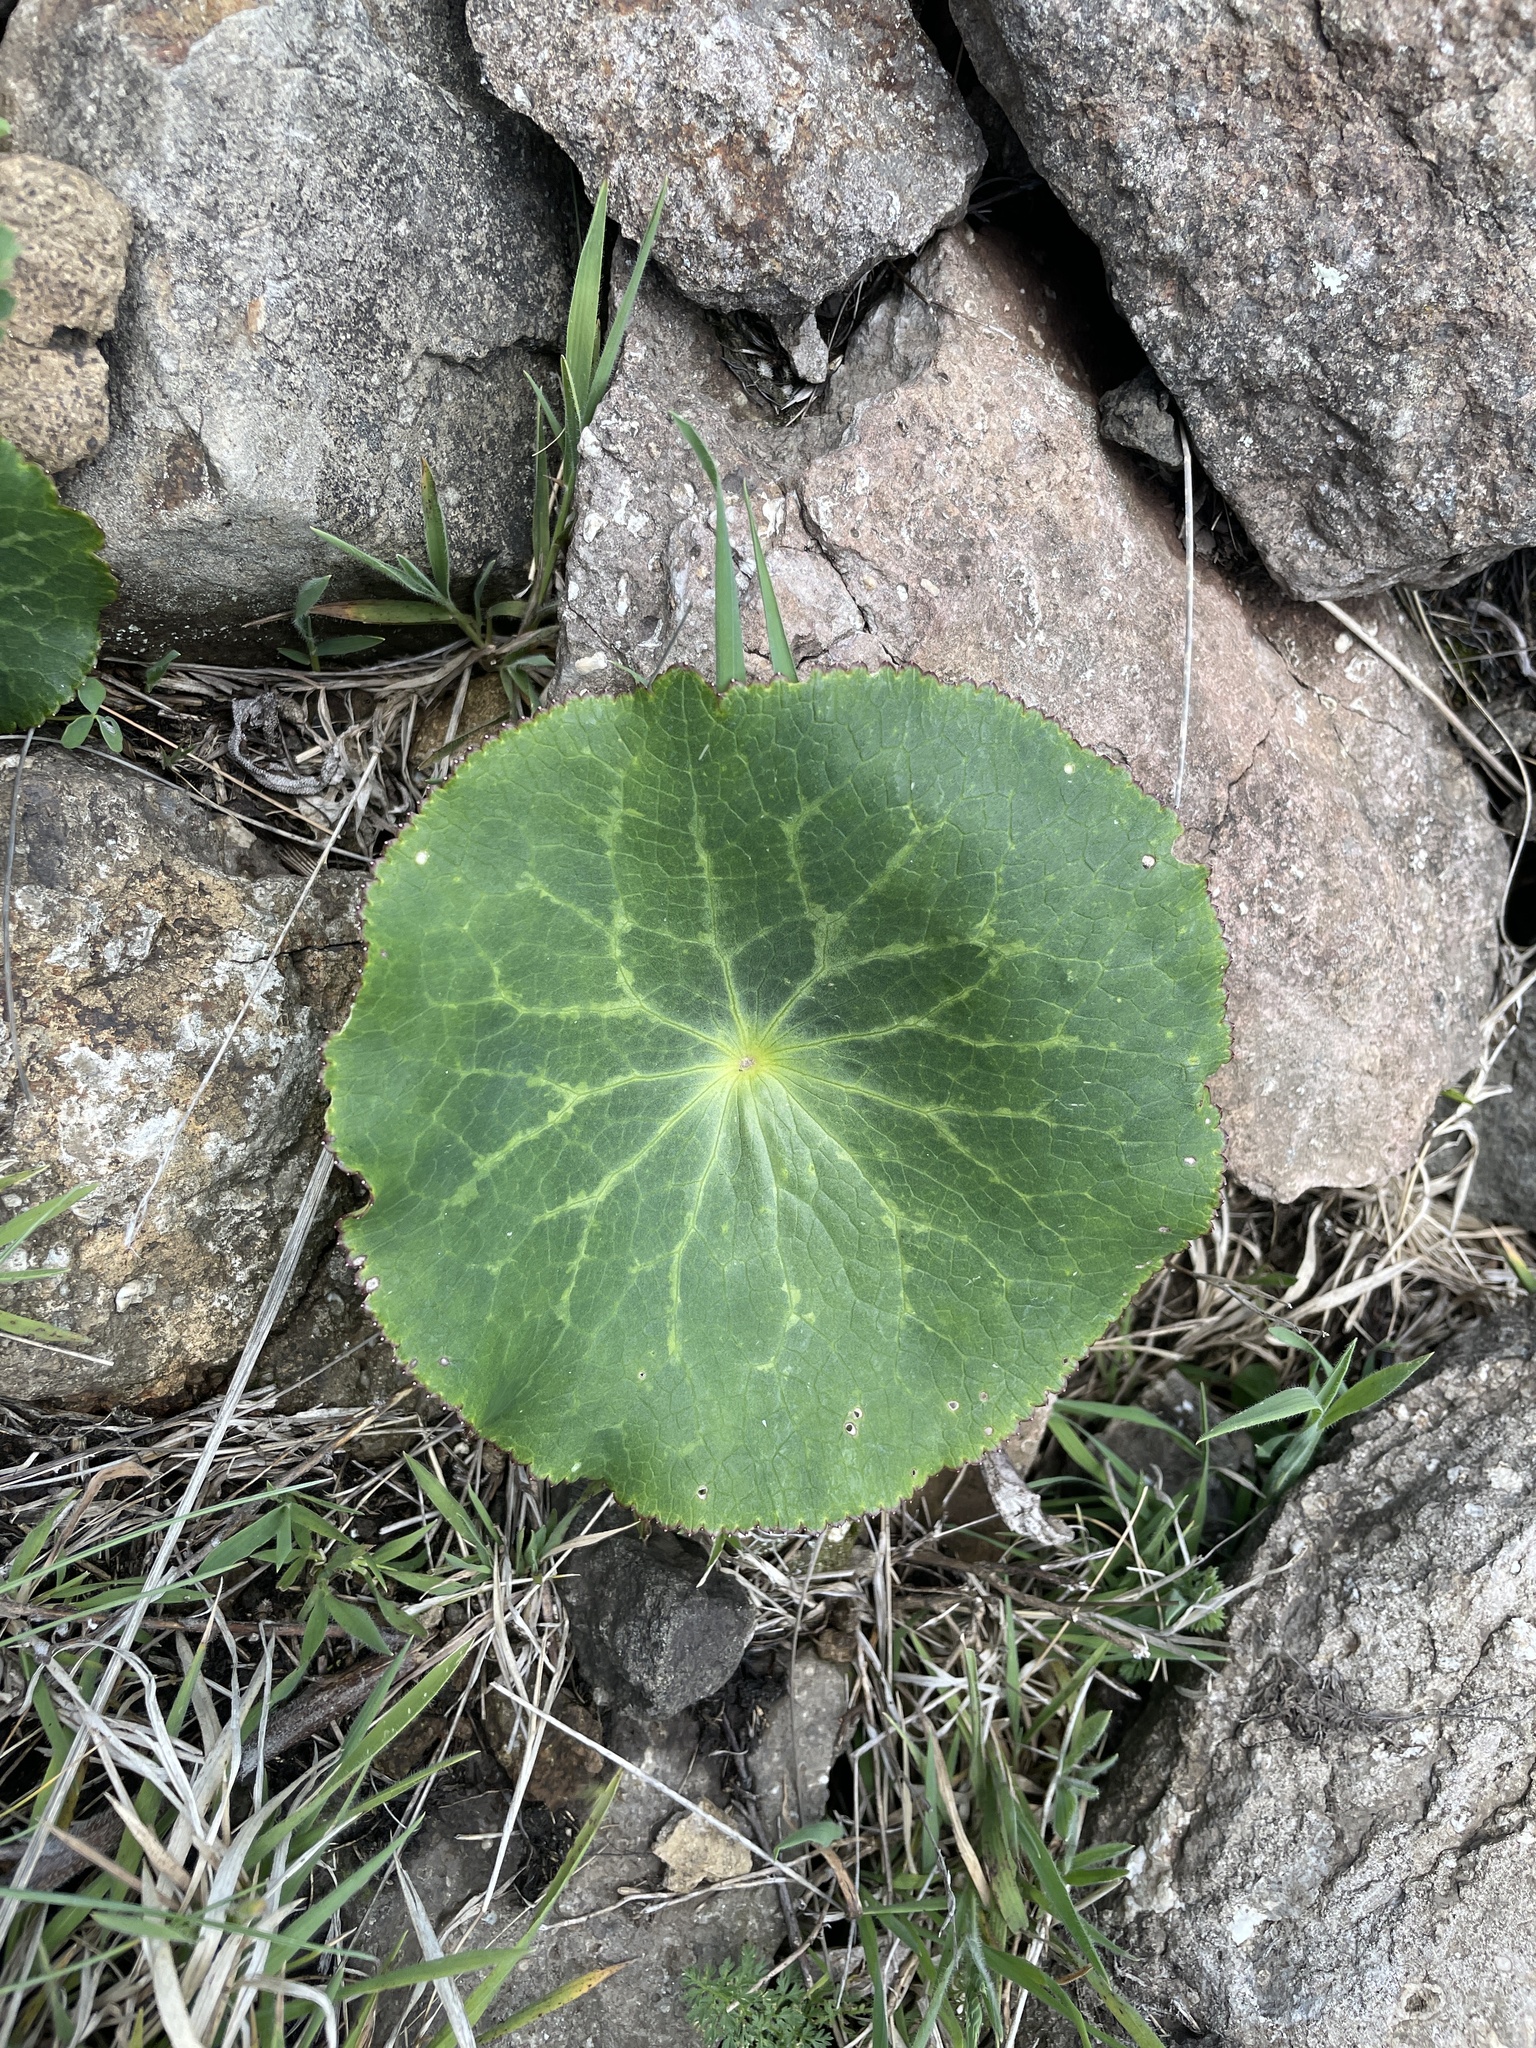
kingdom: Plantae
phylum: Tracheophyta
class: Magnoliopsida
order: Ranunculales
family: Ranunculaceae
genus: Peltocalathos
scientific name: Peltocalathos baurii
